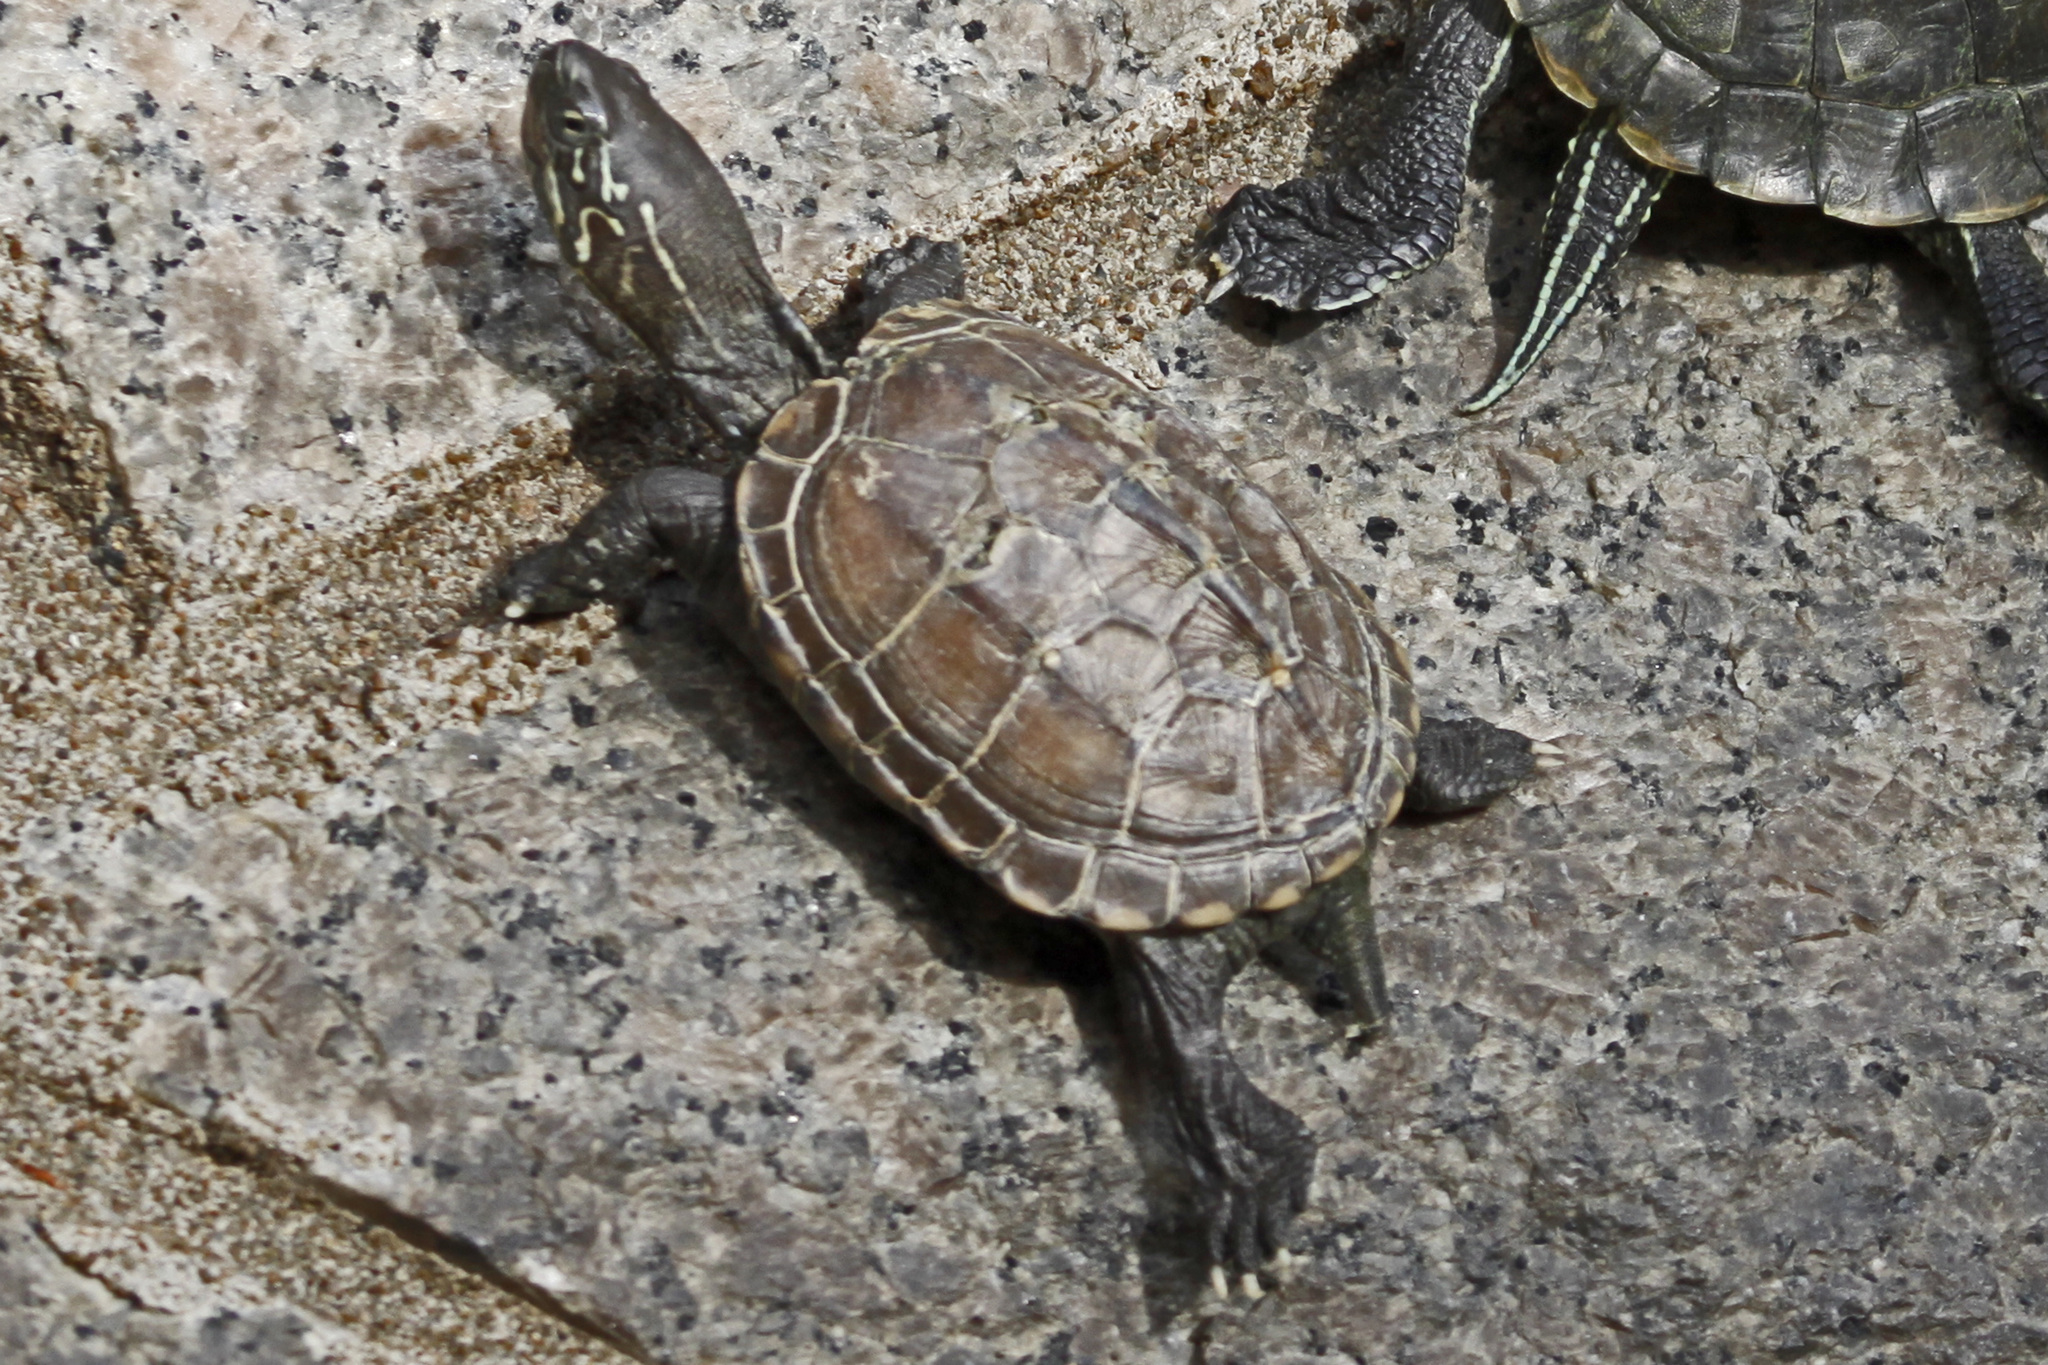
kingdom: Animalia
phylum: Chordata
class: Testudines
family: Geoemydidae
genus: Mauremys
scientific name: Mauremys reevesii
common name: Chinese pond turtle
